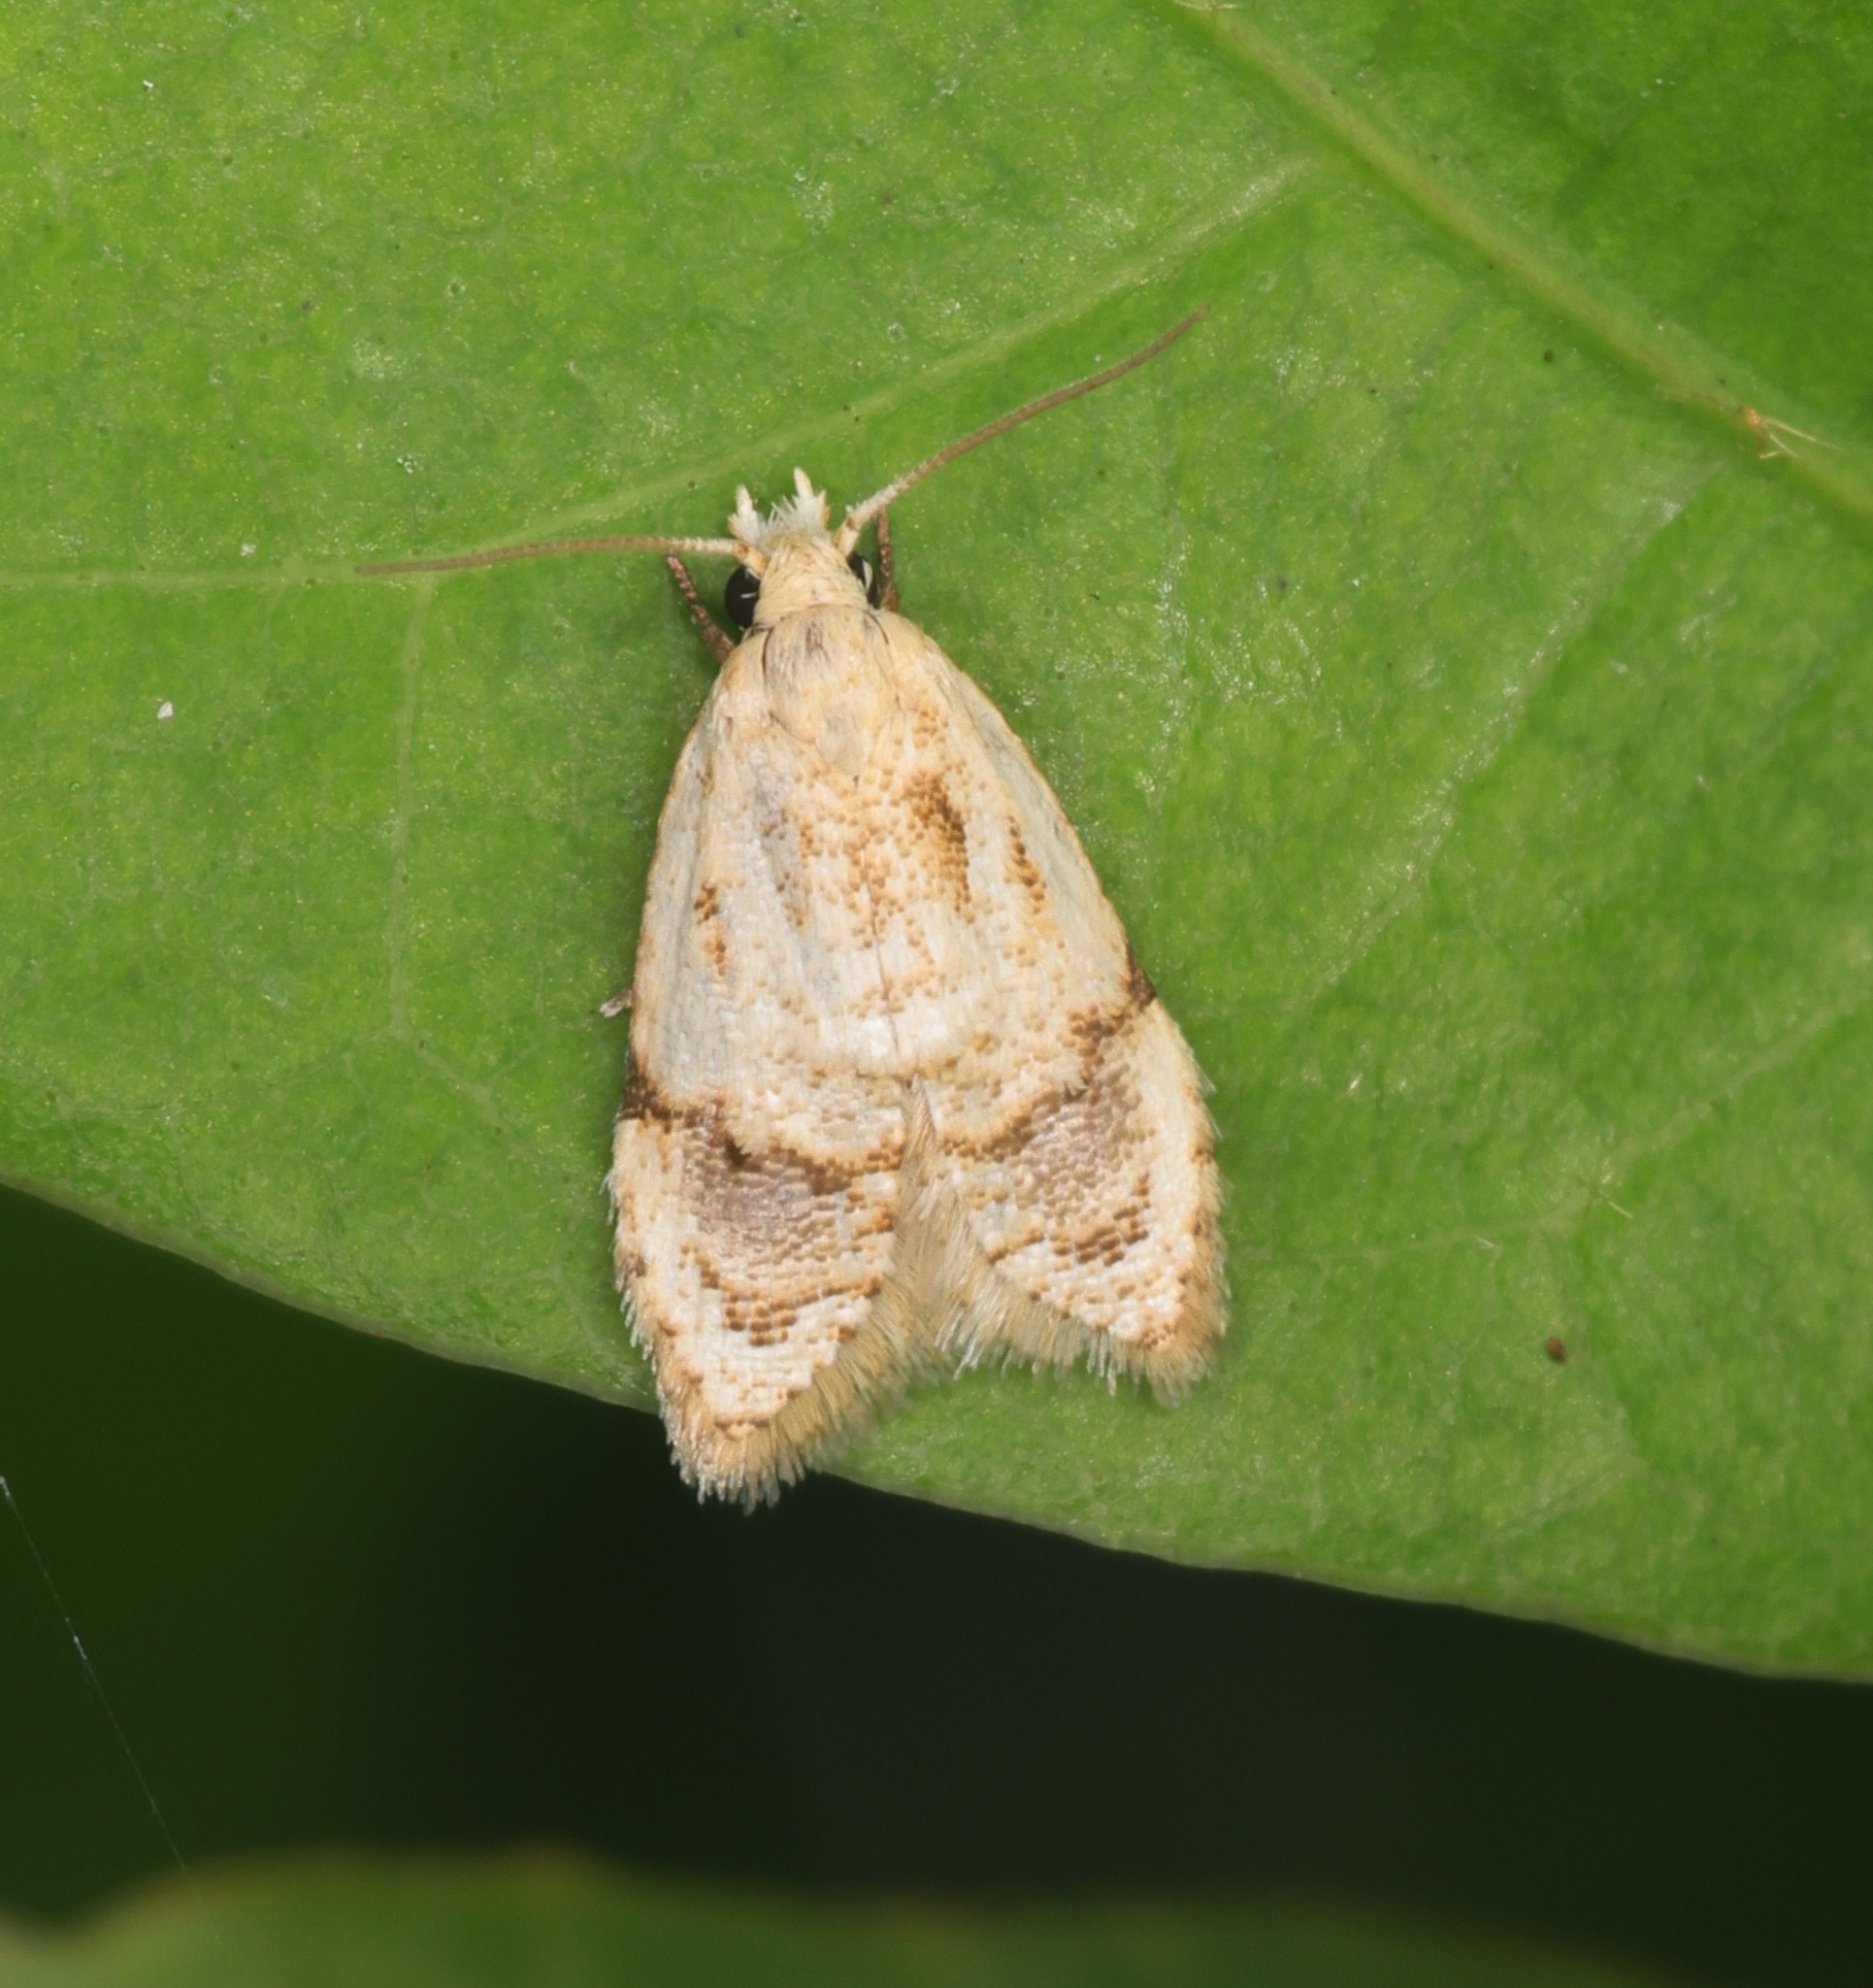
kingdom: Animalia
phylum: Arthropoda
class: Insecta
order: Lepidoptera
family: Tortricidae
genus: Diactenis
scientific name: Diactenis
